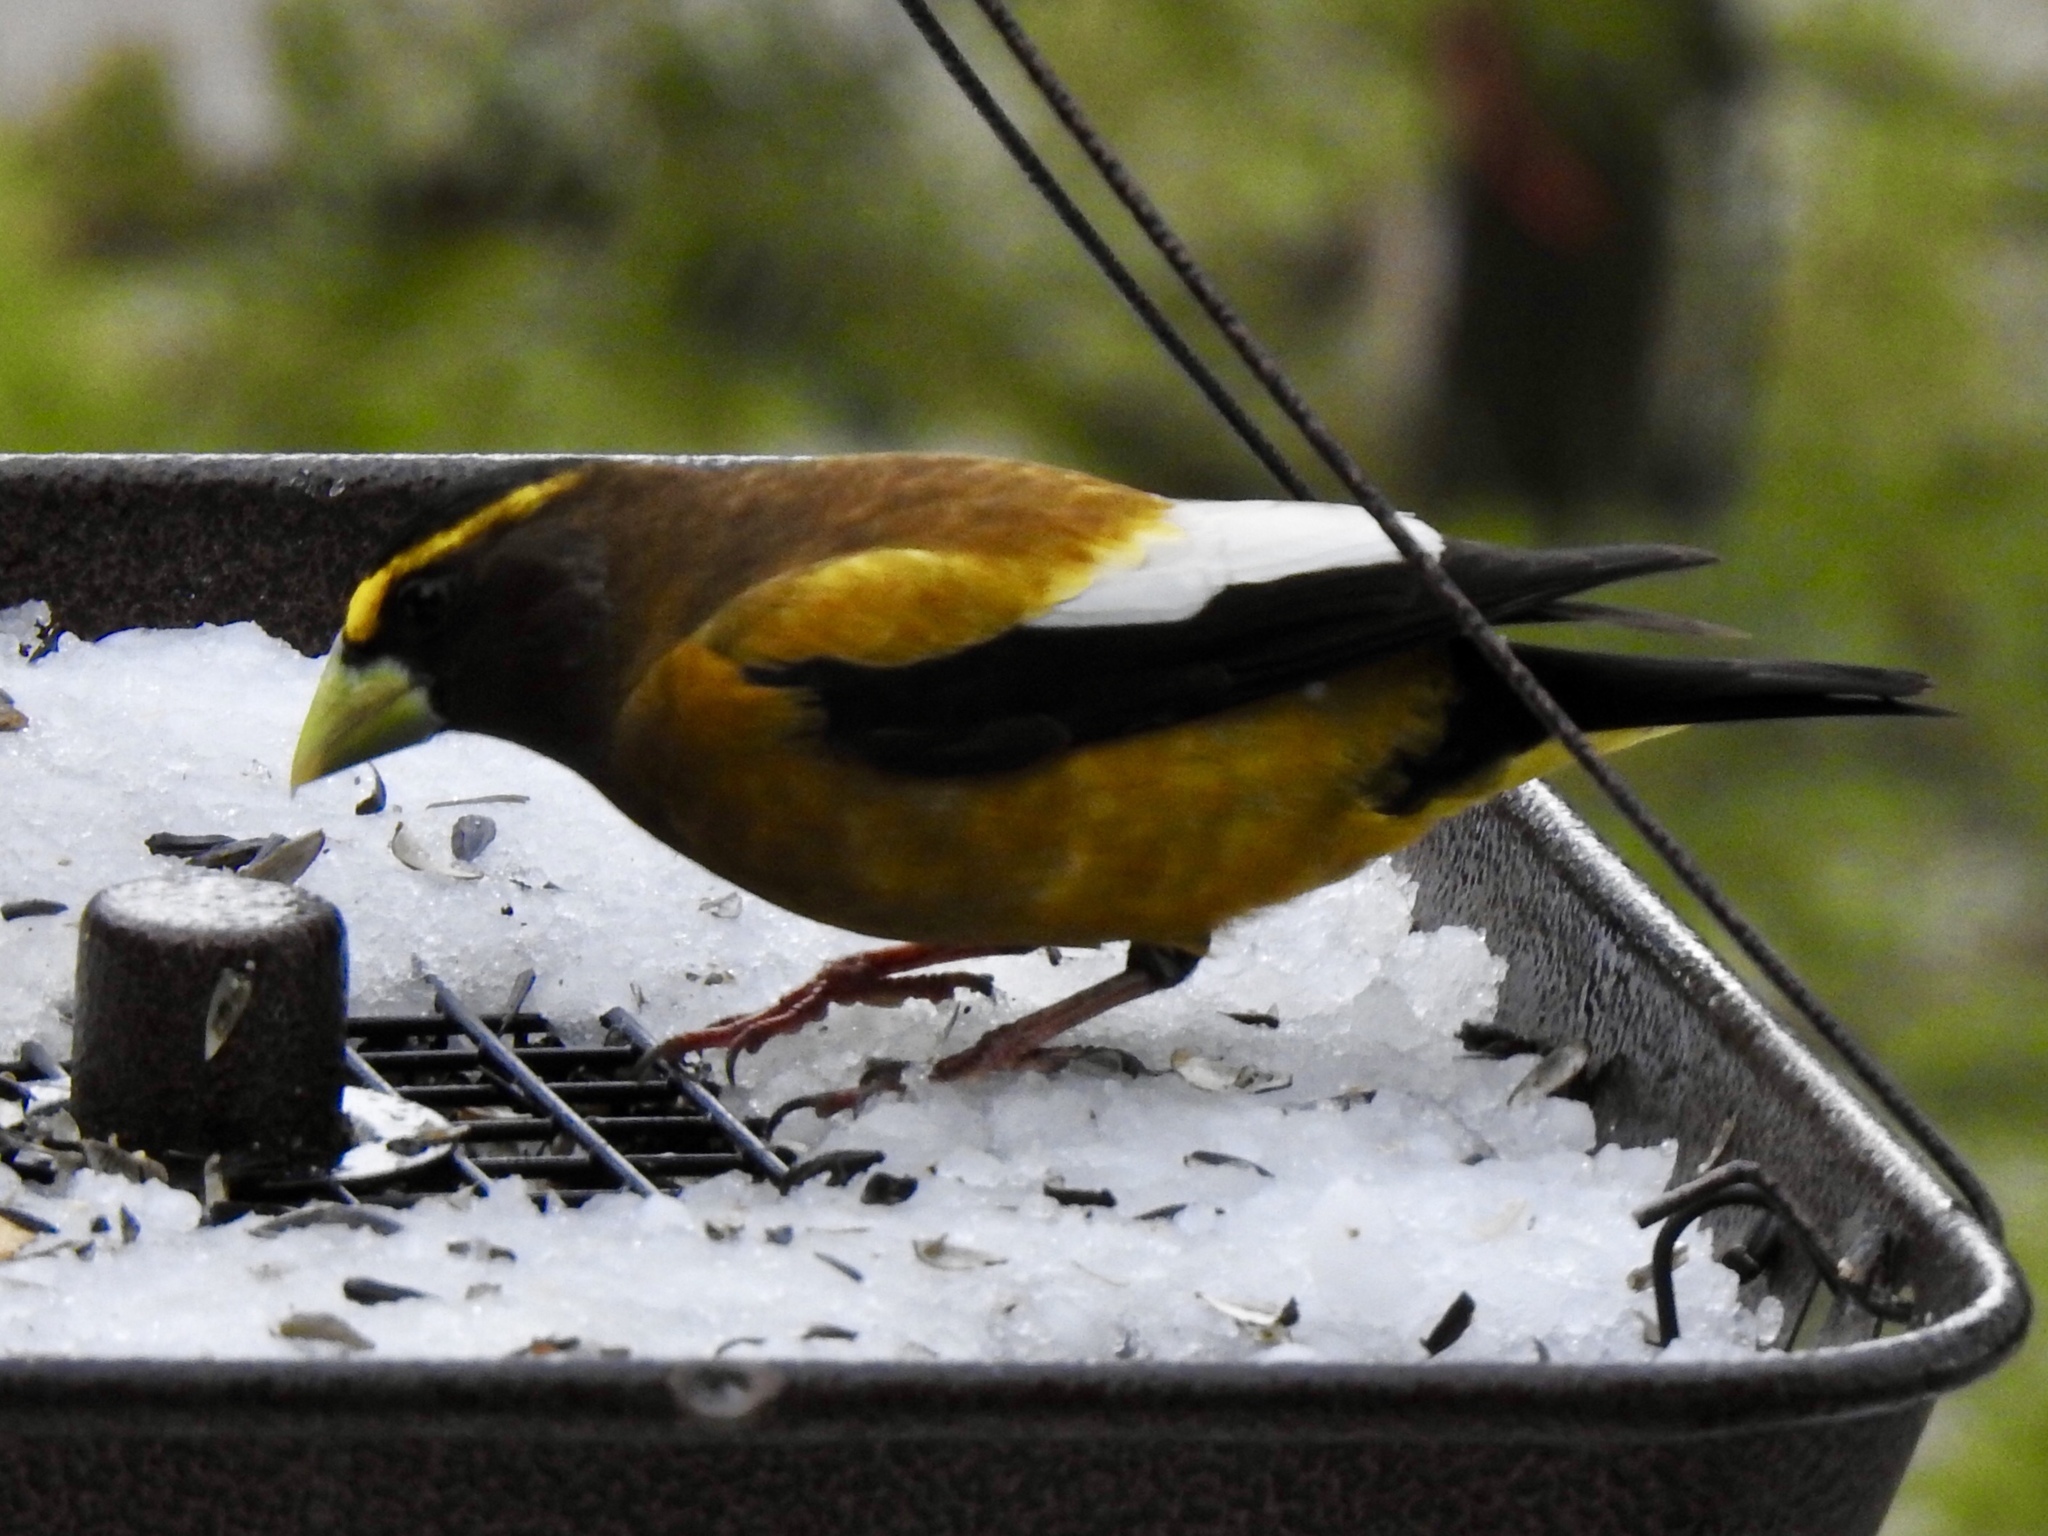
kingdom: Animalia
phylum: Chordata
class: Aves
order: Passeriformes
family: Fringillidae
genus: Hesperiphona
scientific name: Hesperiphona vespertina
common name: Evening grosbeak
